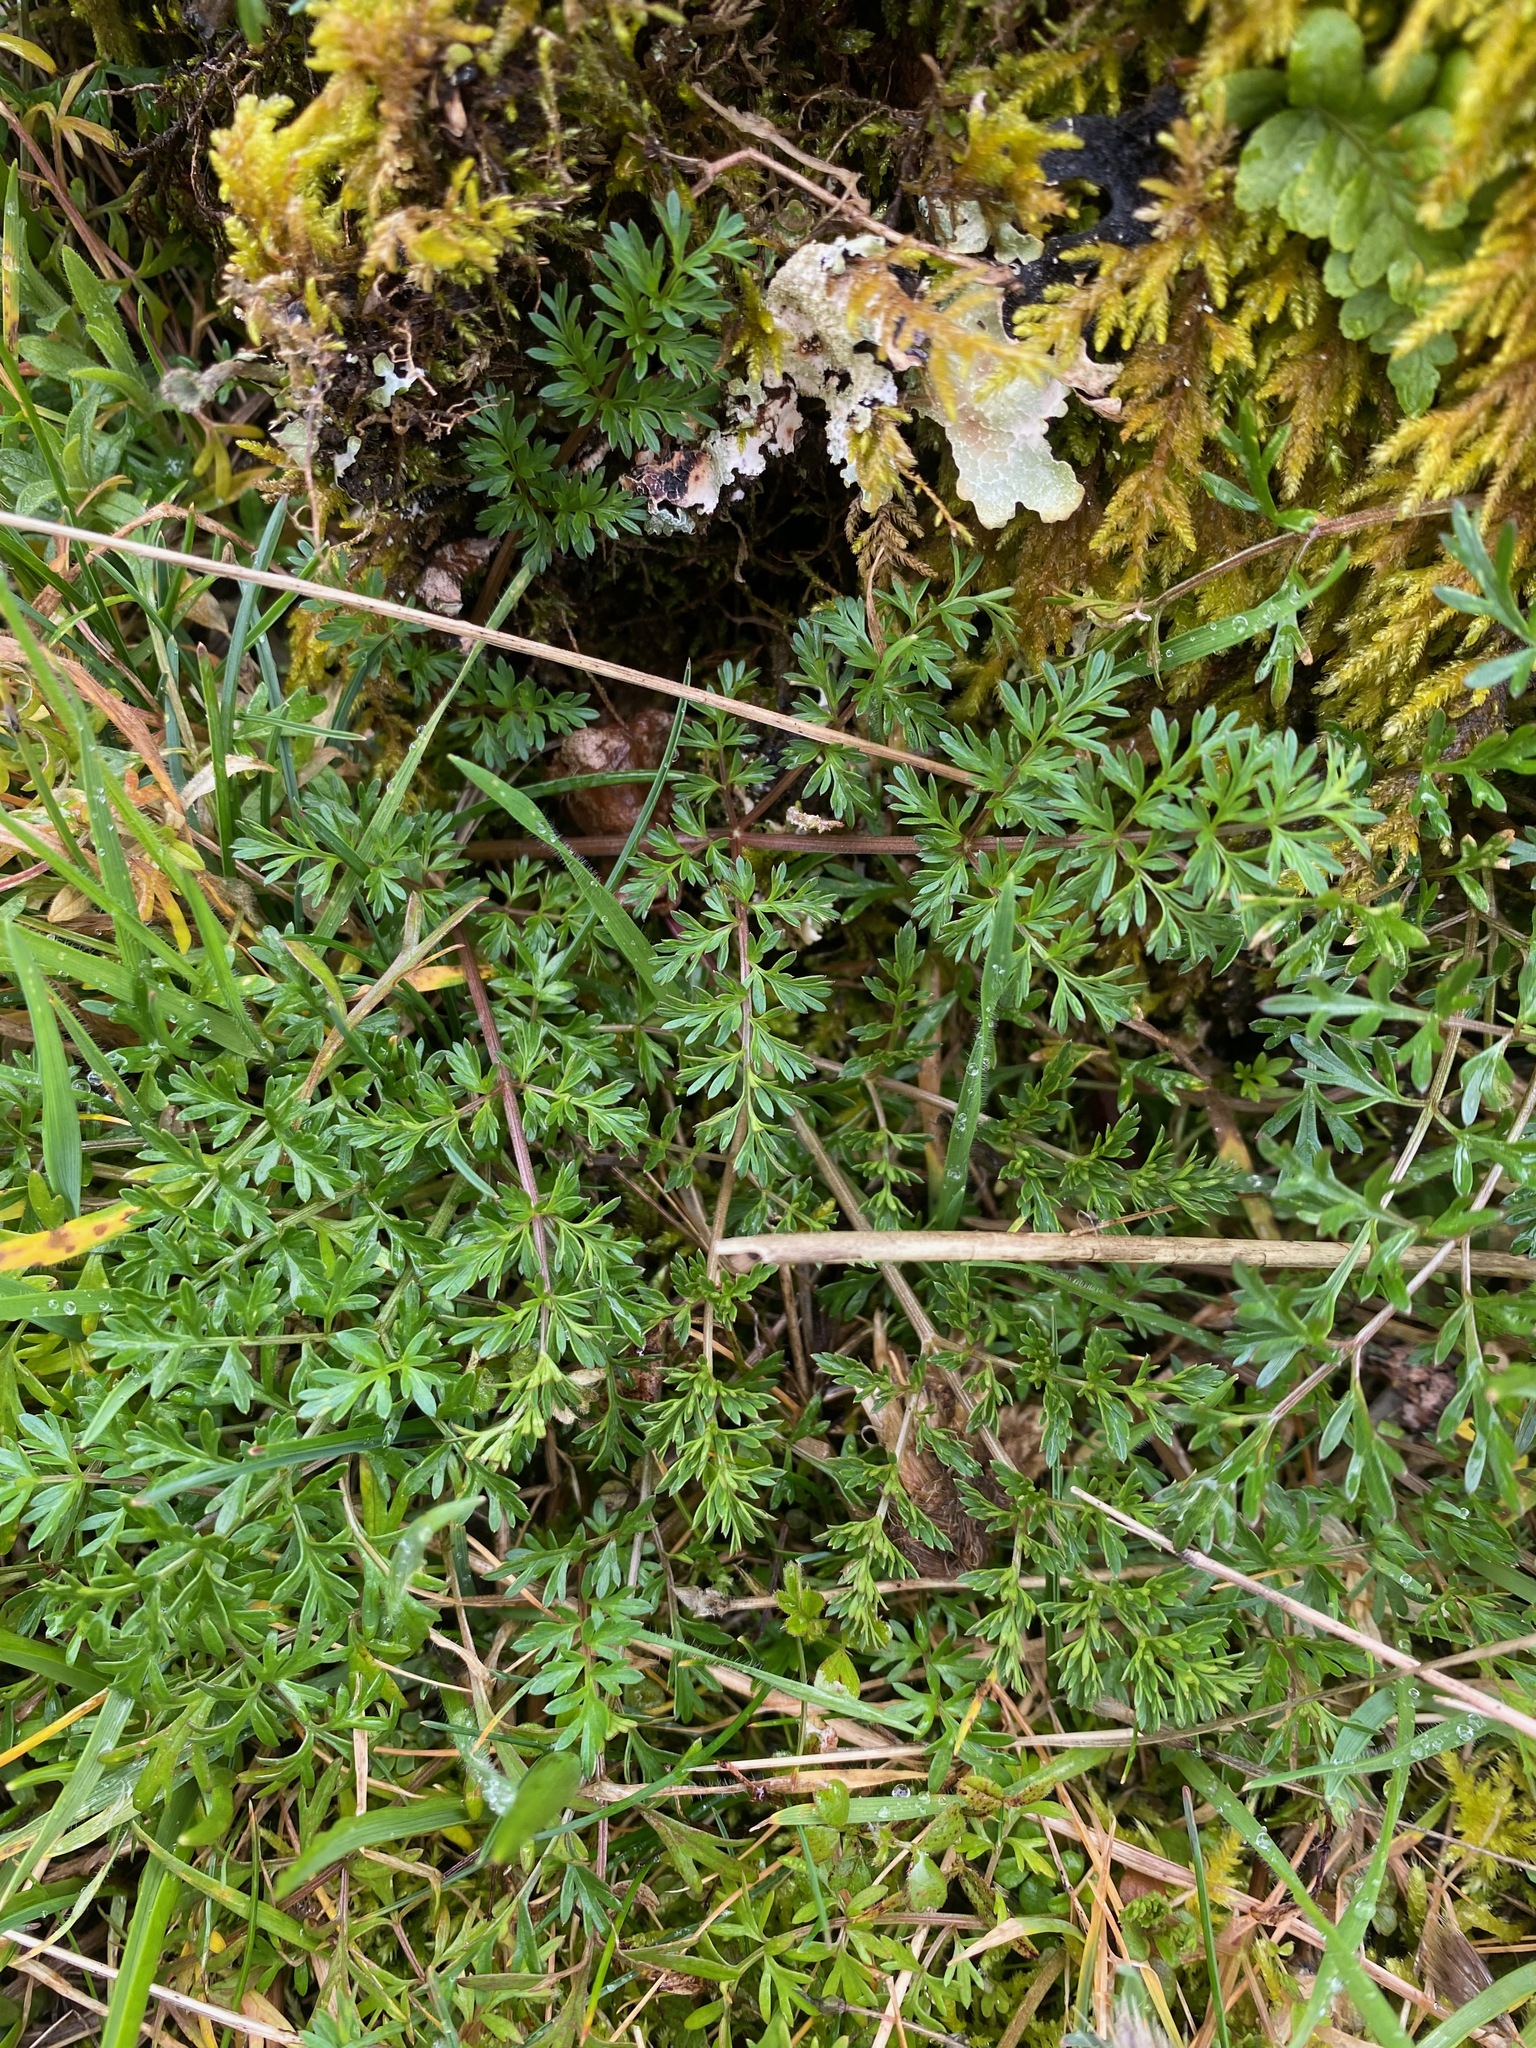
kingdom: Plantae
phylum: Tracheophyta
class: Magnoliopsida
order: Apiales
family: Apiaceae
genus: Lomatium
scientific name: Lomatium utriculatum
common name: Fine-leaf desert-parsley
